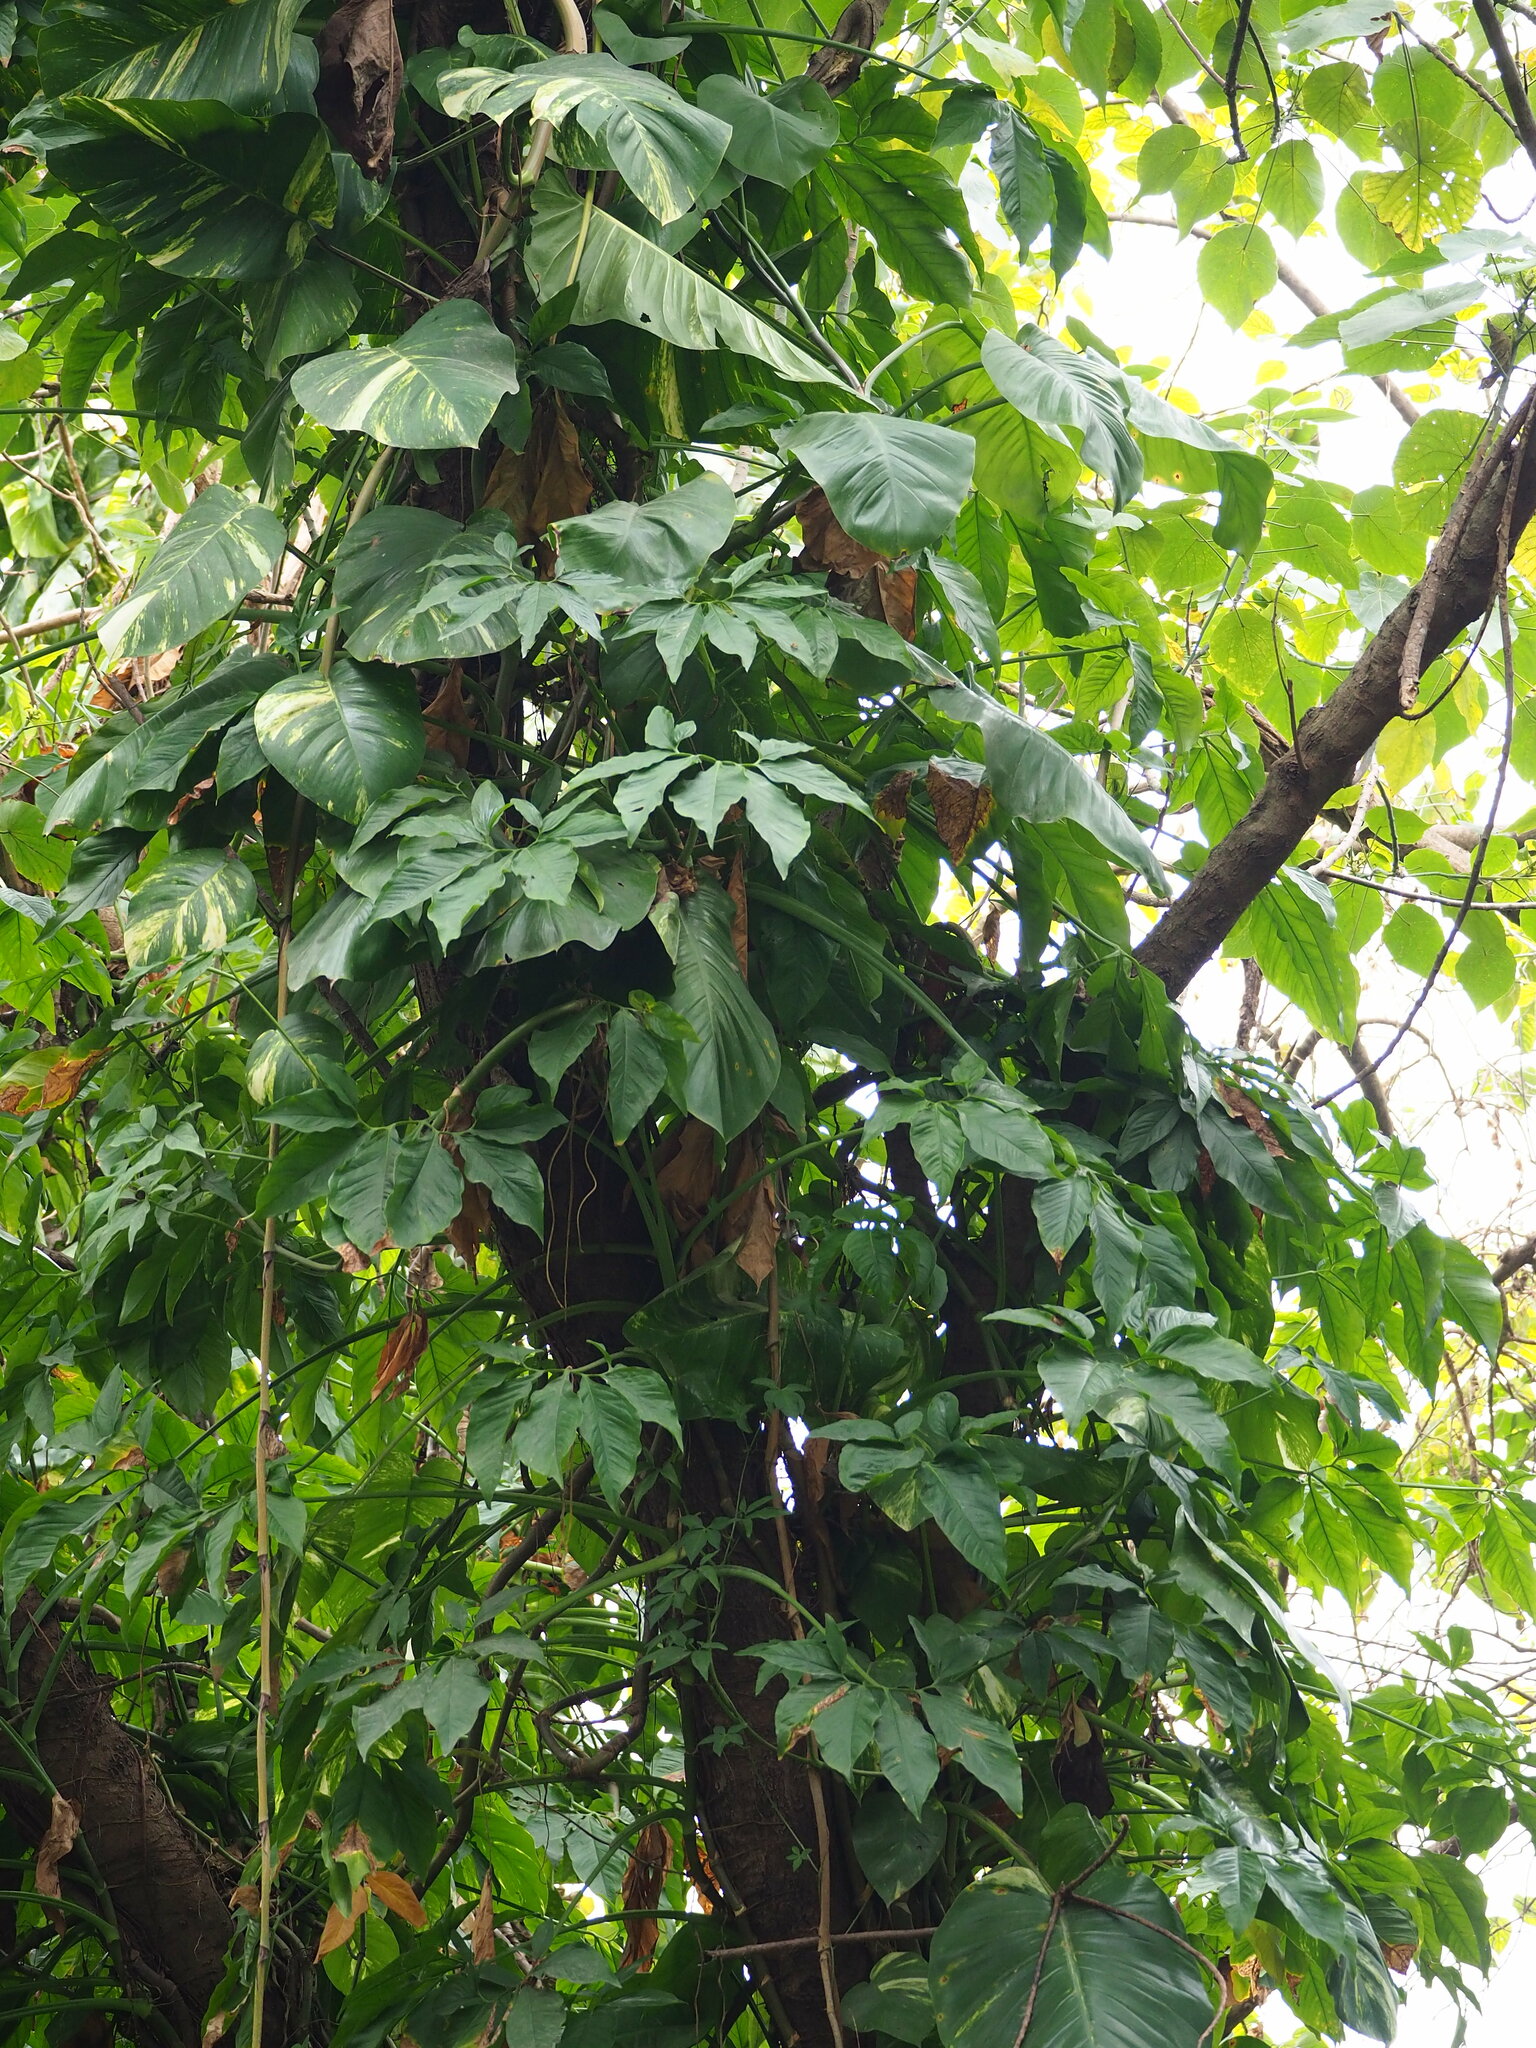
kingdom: Plantae
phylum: Tracheophyta
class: Liliopsida
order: Alismatales
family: Araceae
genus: Syngonium
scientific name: Syngonium angustatum
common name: Fivefingers
